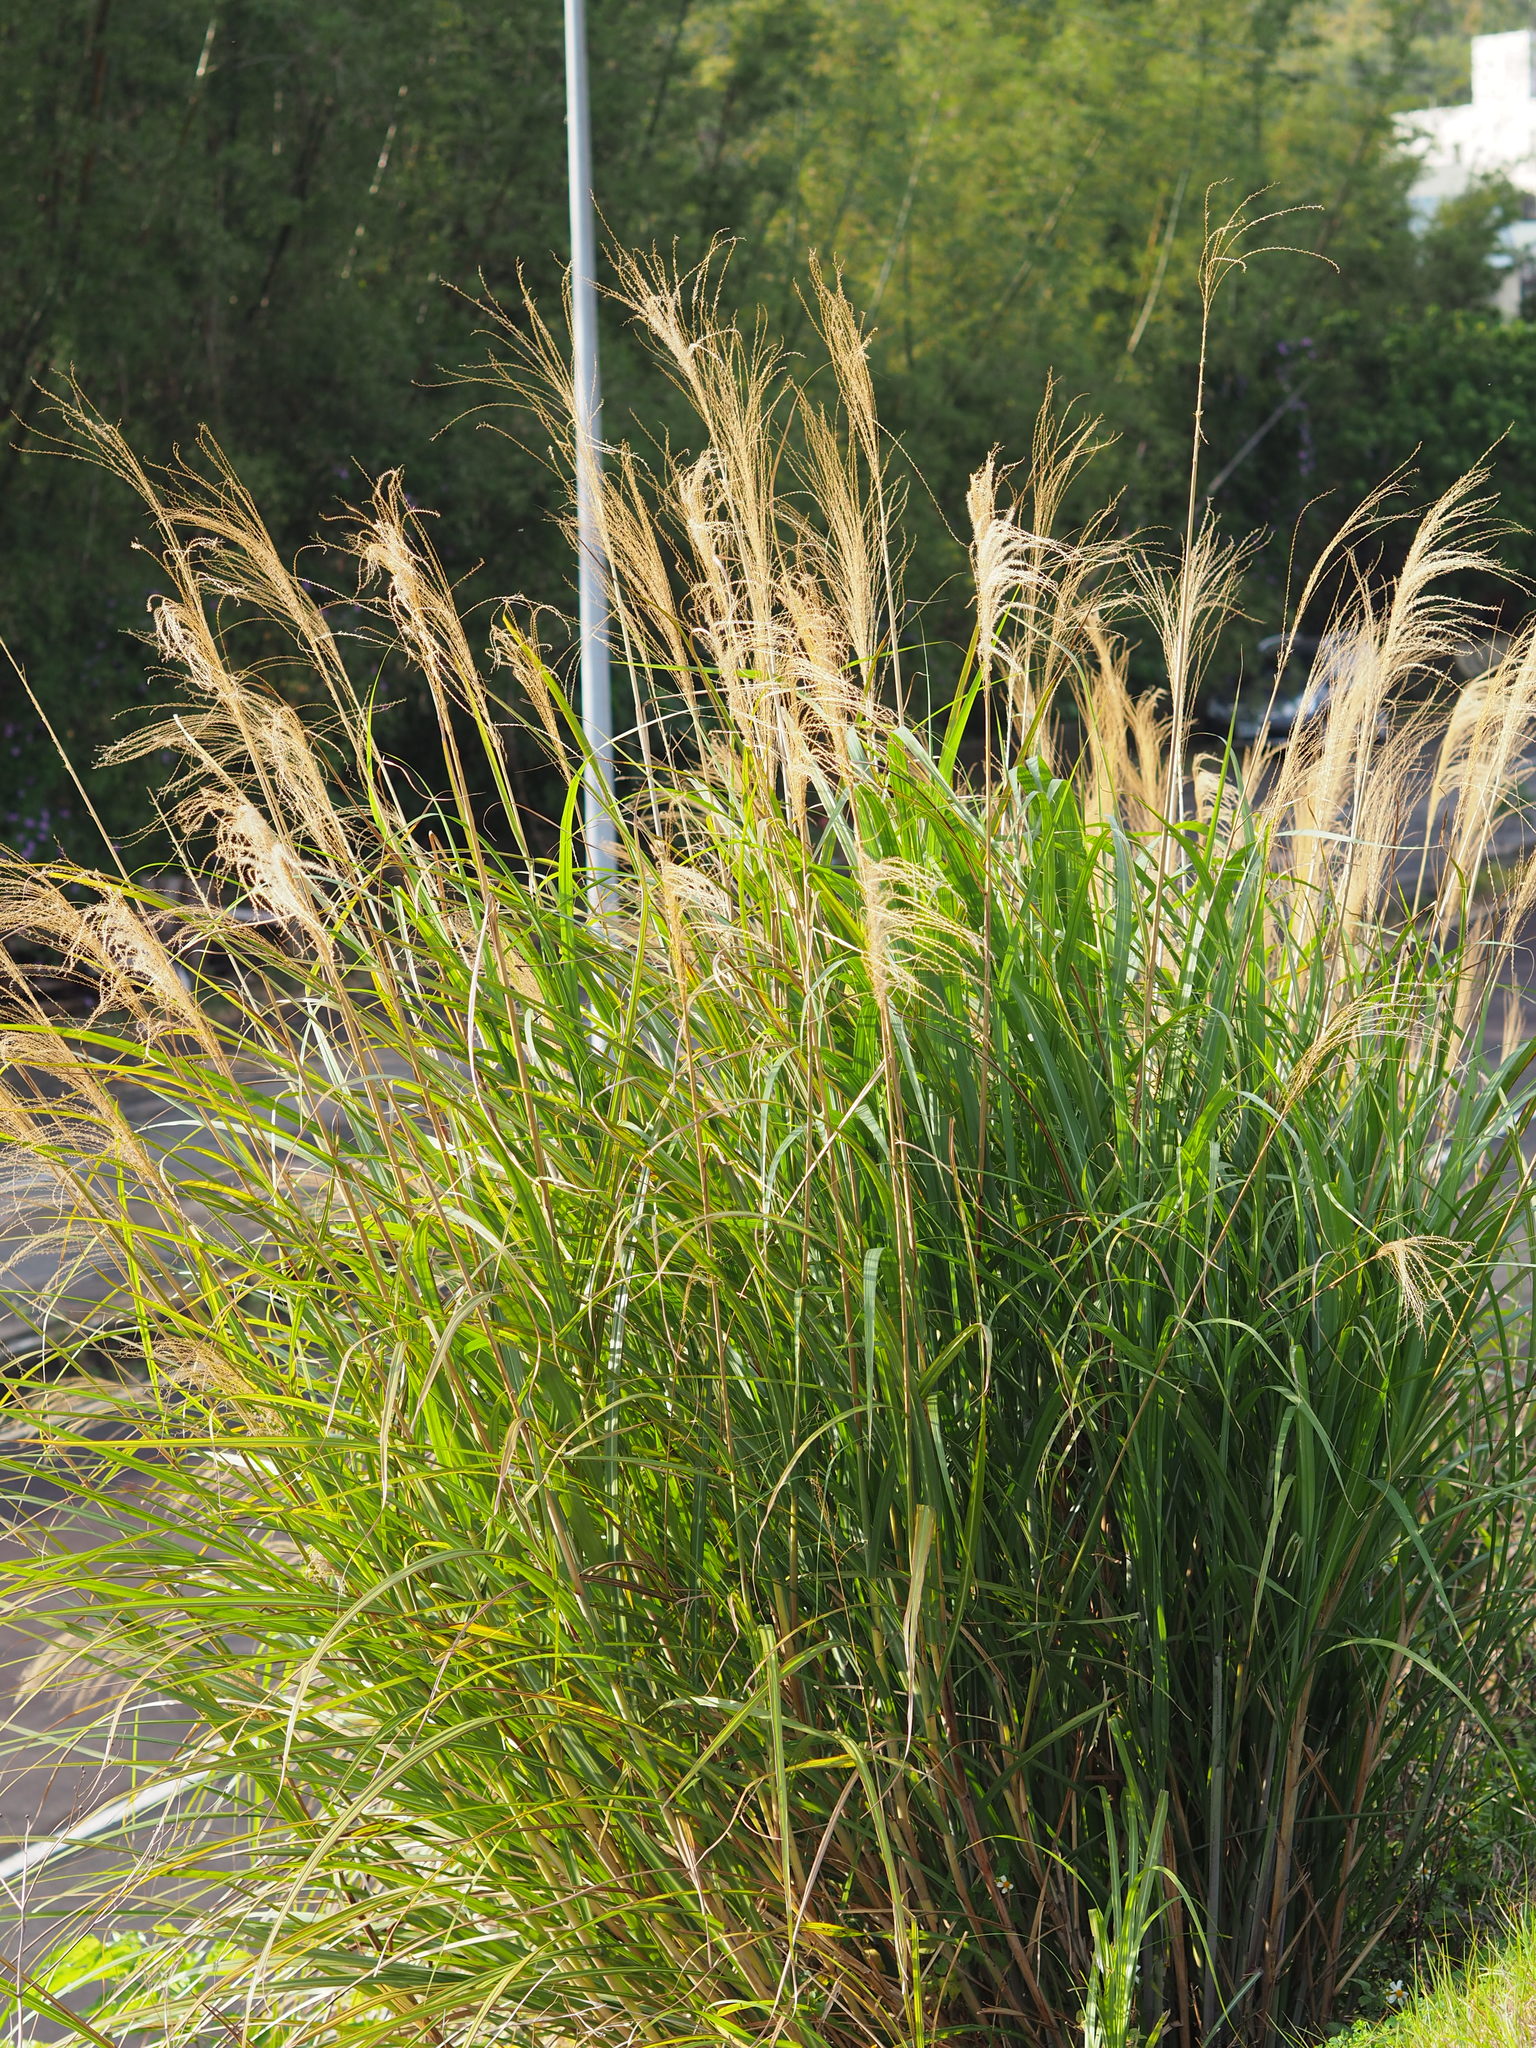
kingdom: Plantae
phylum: Tracheophyta
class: Liliopsida
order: Poales
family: Poaceae
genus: Miscanthus
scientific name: Miscanthus sinensis
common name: Chinese silvergrass
